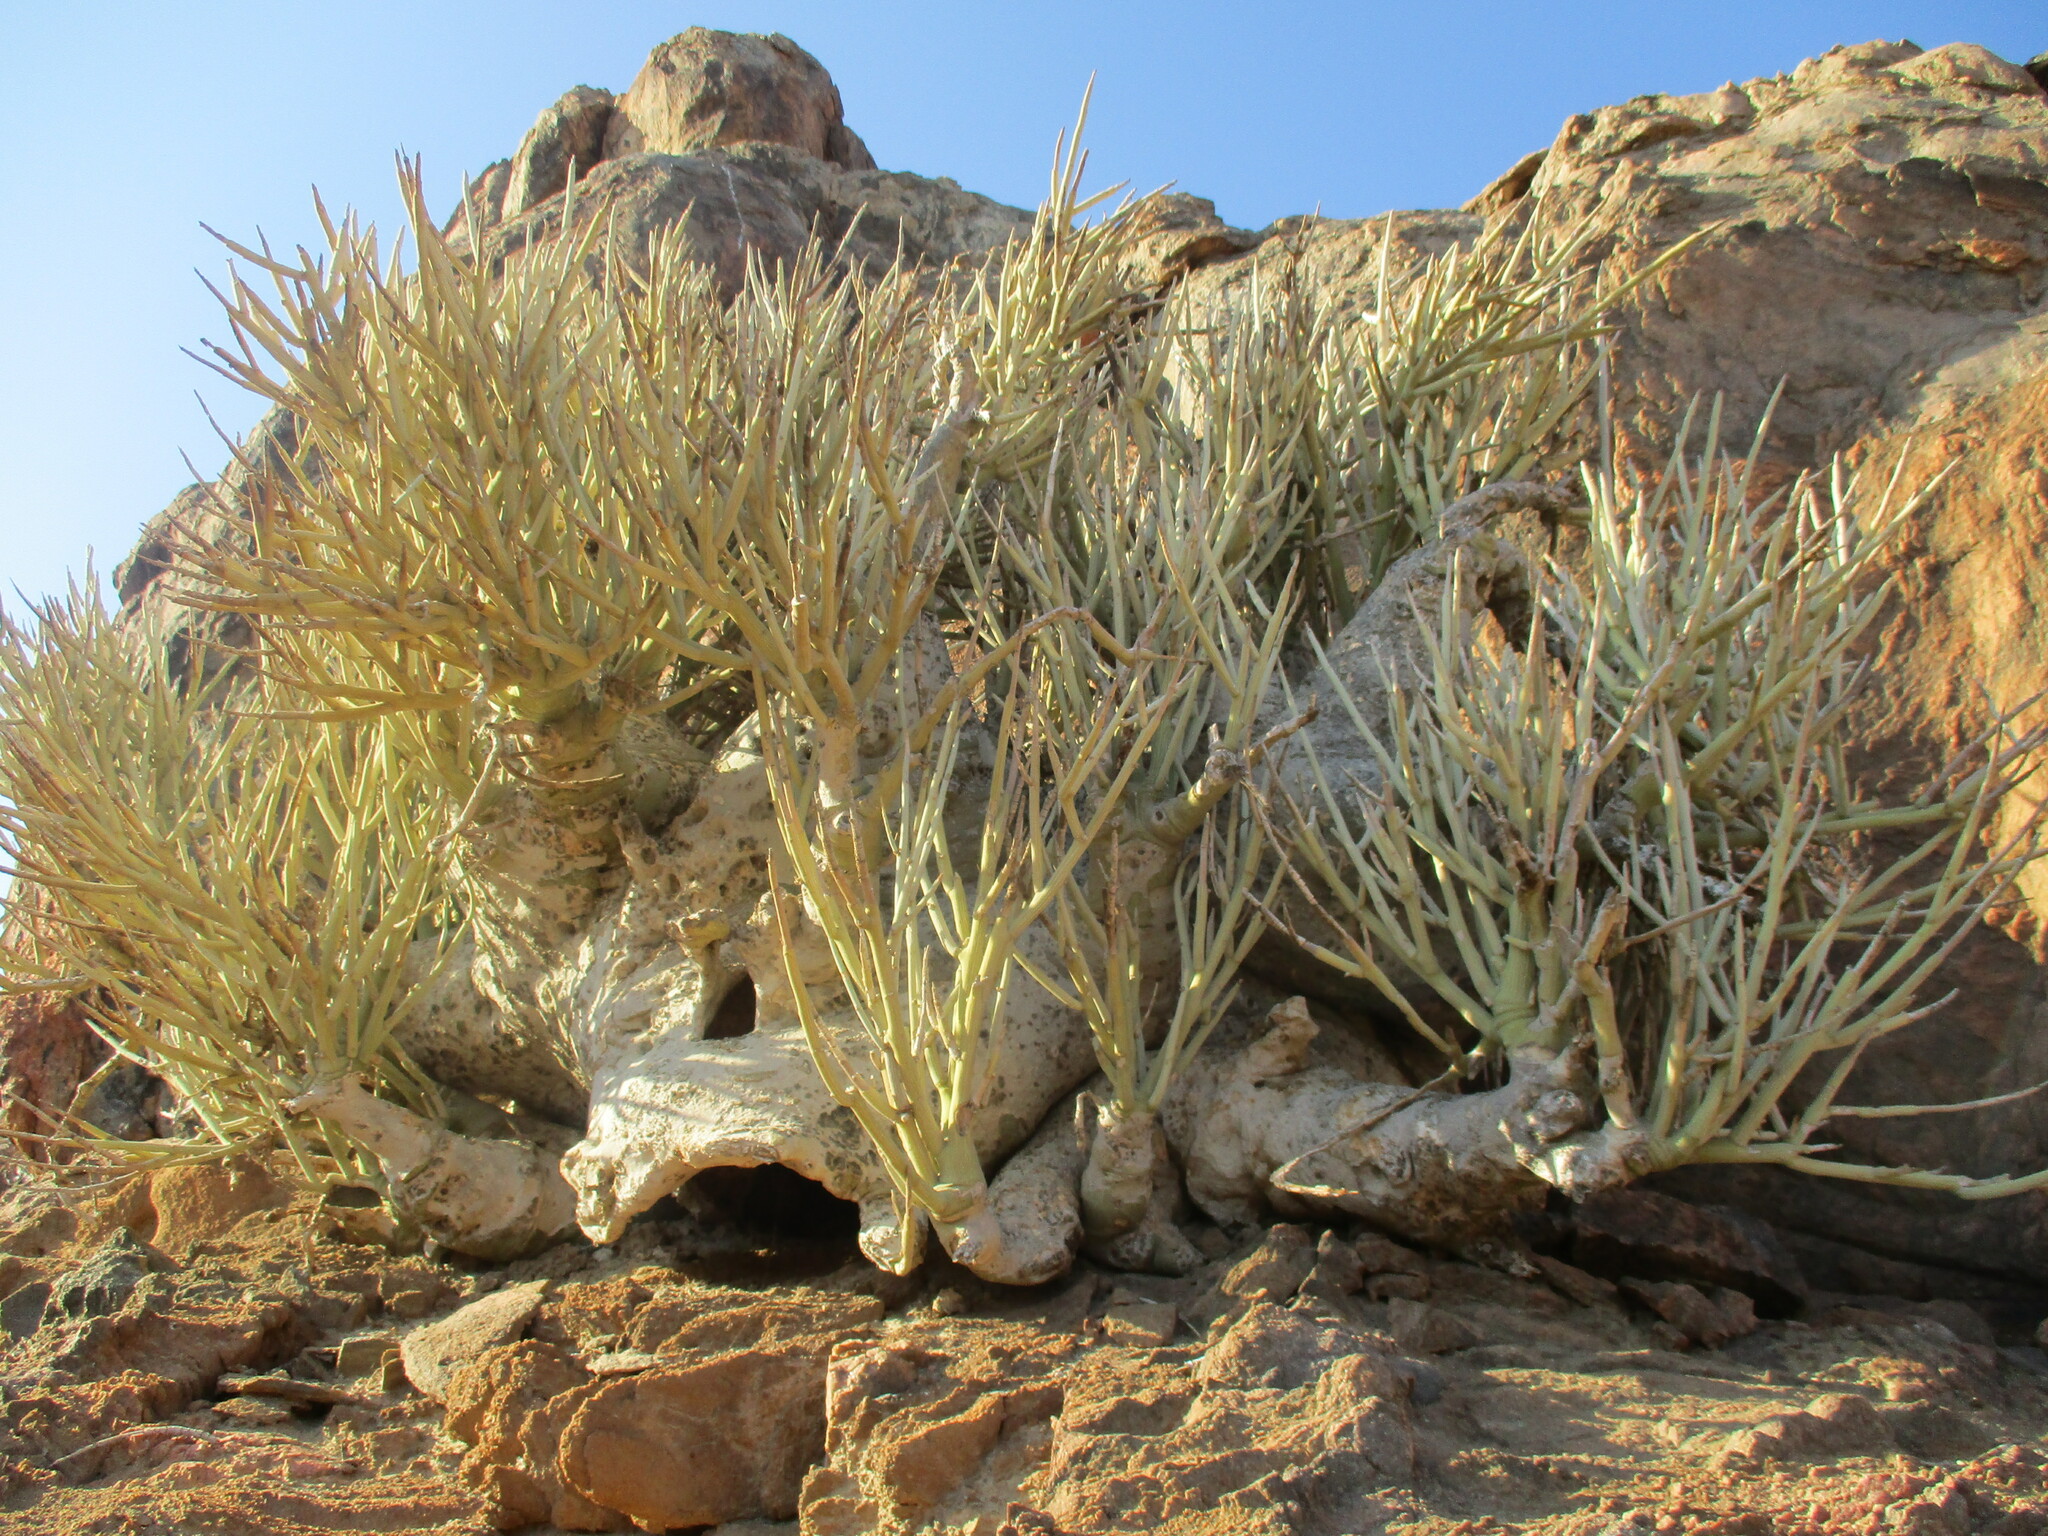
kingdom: Plantae
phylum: Tracheophyta
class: Magnoliopsida
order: Malpighiales
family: Passifloraceae
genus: Adenia
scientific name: Adenia pechuelii
